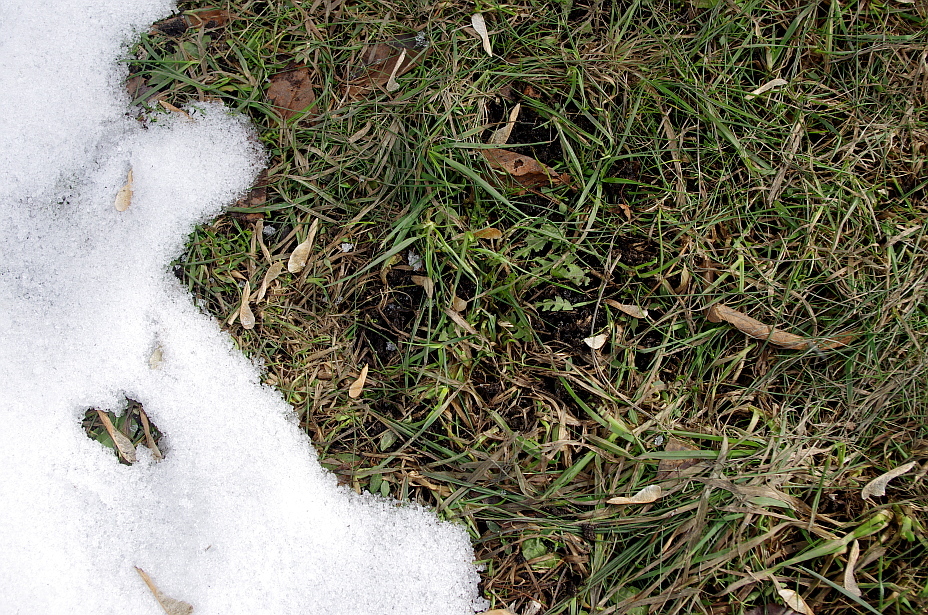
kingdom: Plantae
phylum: Tracheophyta
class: Magnoliopsida
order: Asterales
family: Asteraceae
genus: Taraxacum
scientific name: Taraxacum officinale
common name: Common dandelion
